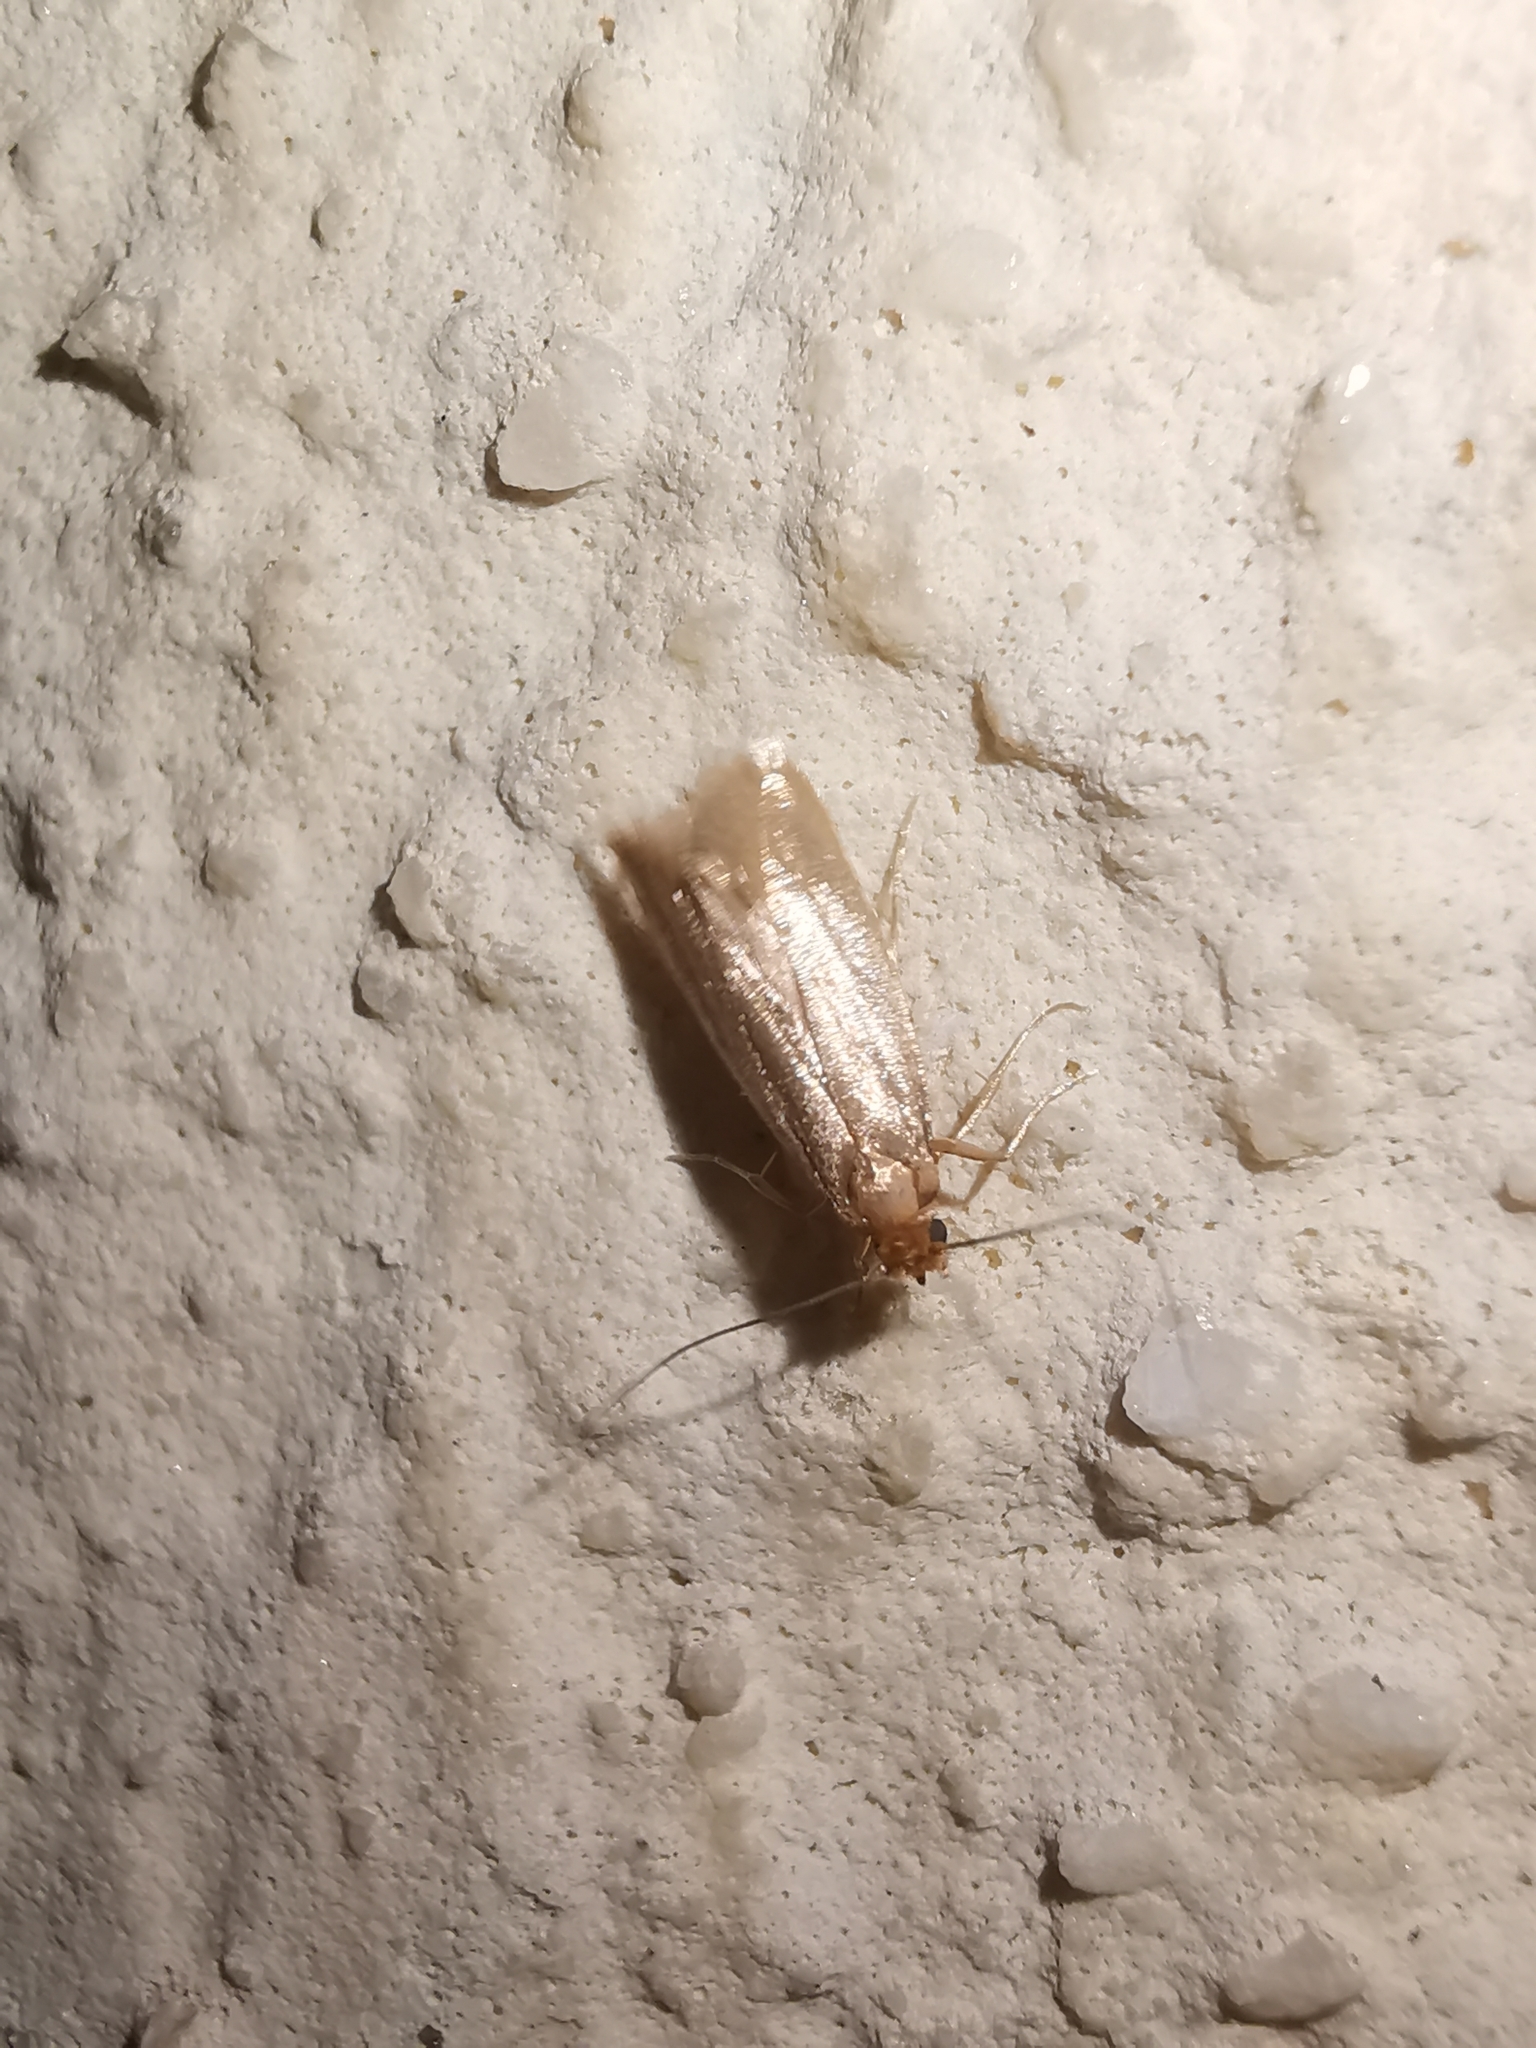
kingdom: Animalia
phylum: Arthropoda
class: Insecta
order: Lepidoptera
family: Tineidae
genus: Tineola
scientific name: Tineola bisselliella
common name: Webbing clothes moth
